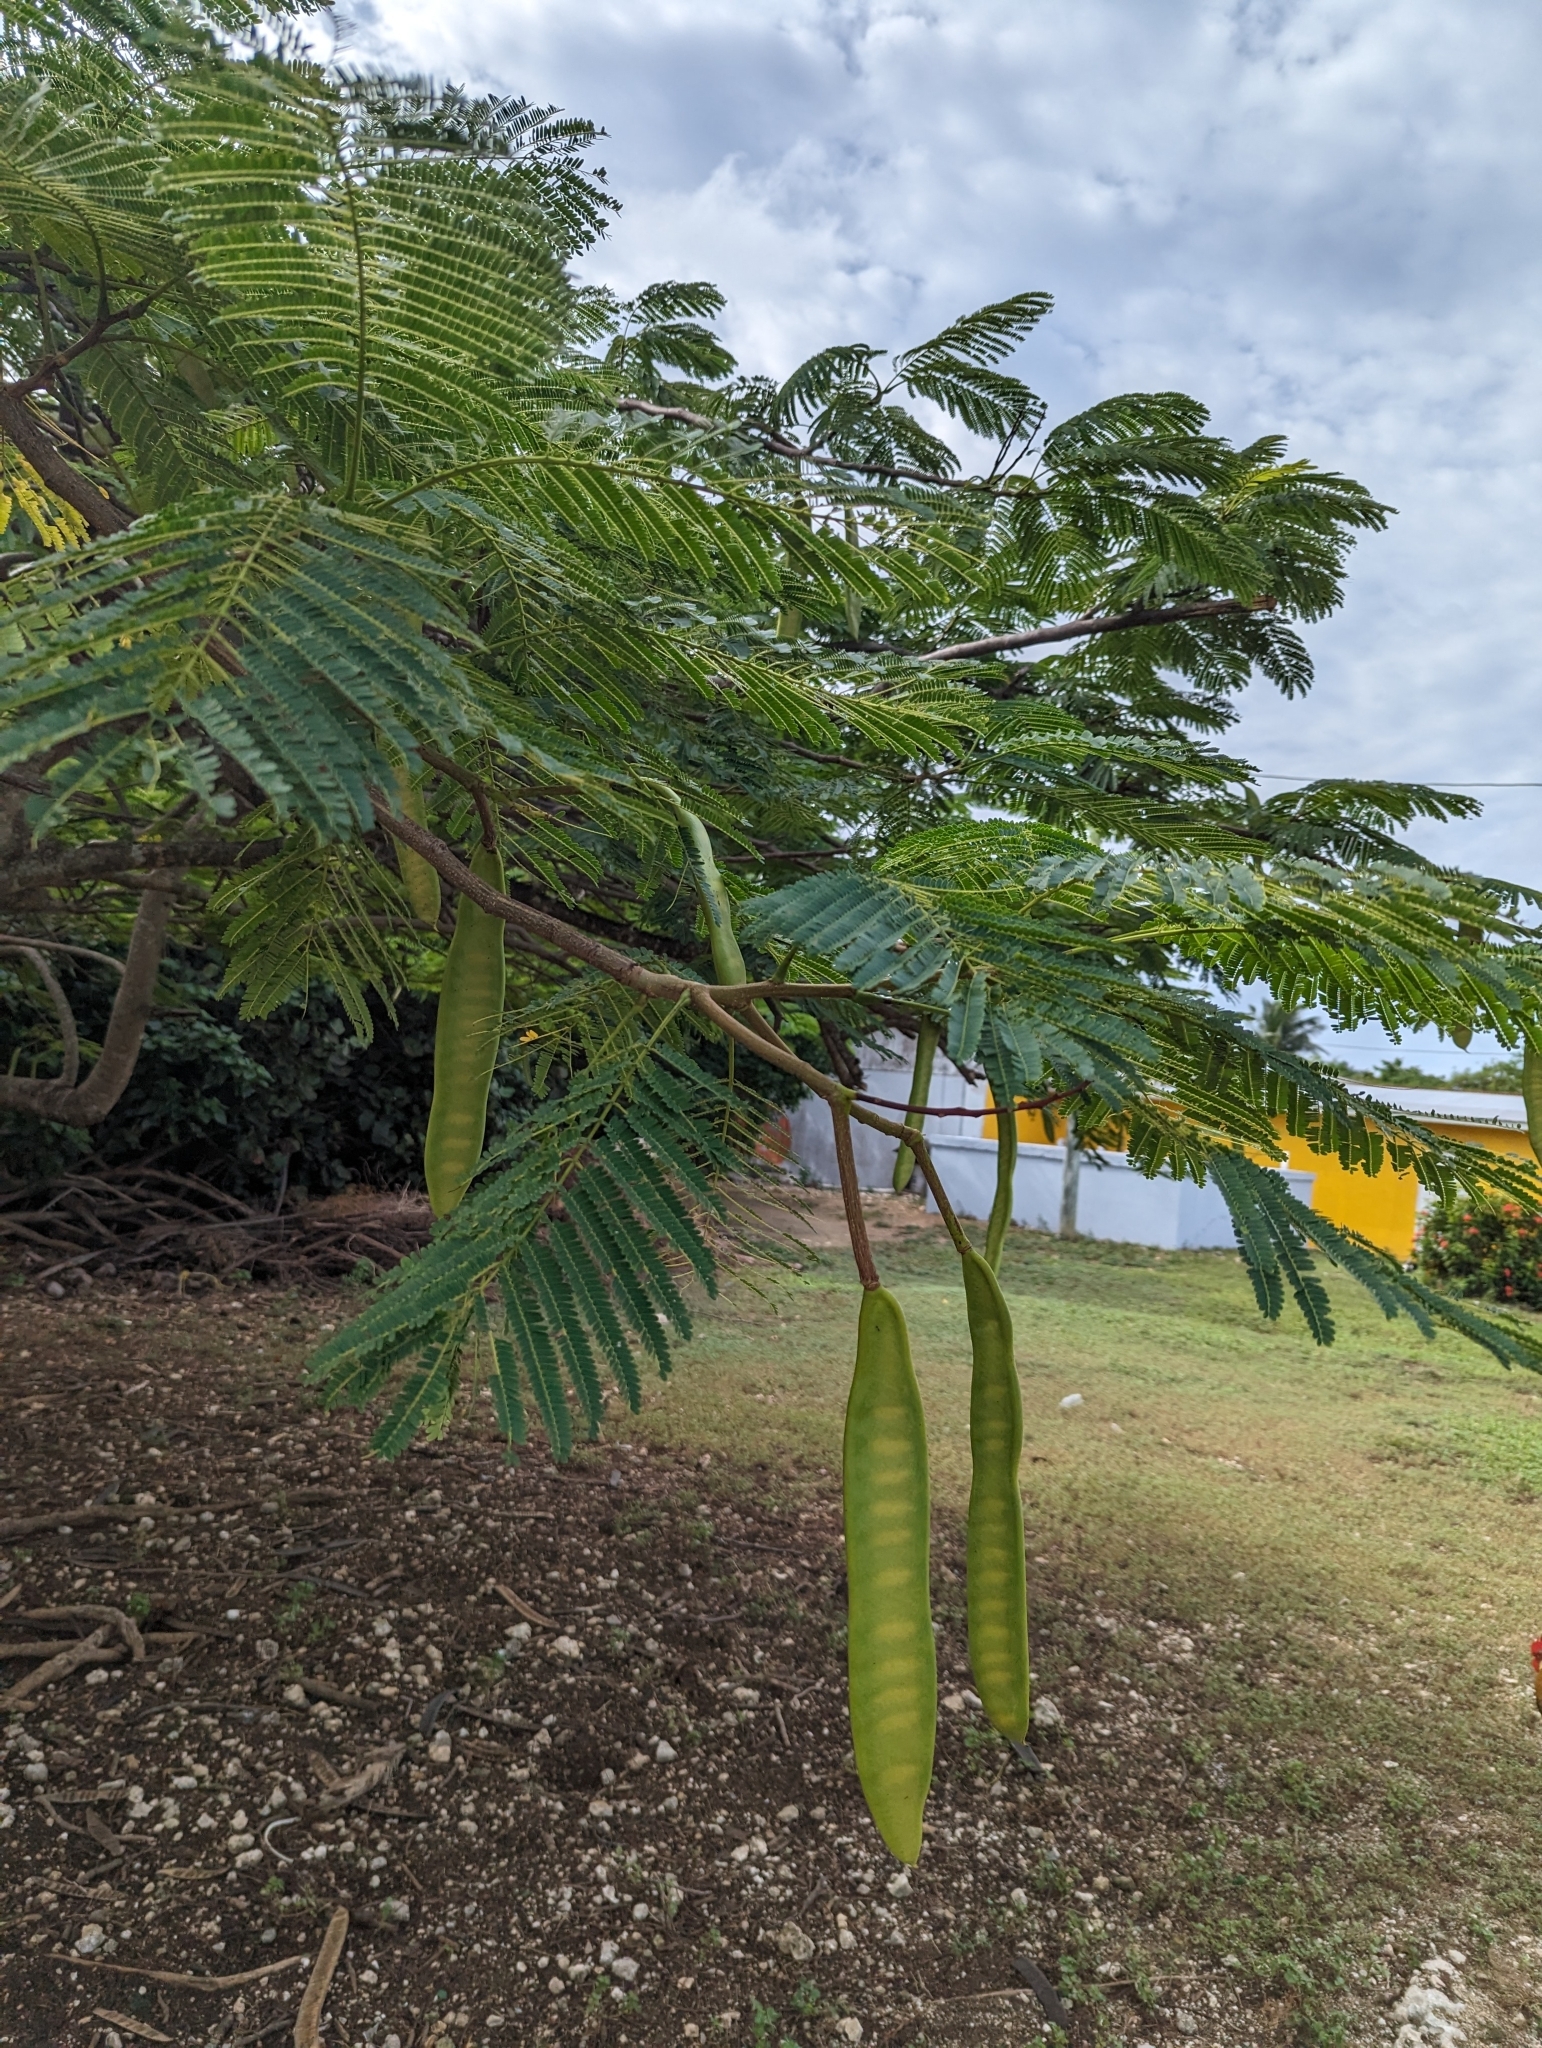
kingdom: Plantae
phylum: Tracheophyta
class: Magnoliopsida
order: Fabales
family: Fabaceae
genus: Delonix
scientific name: Delonix regia
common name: Royal poinciana
